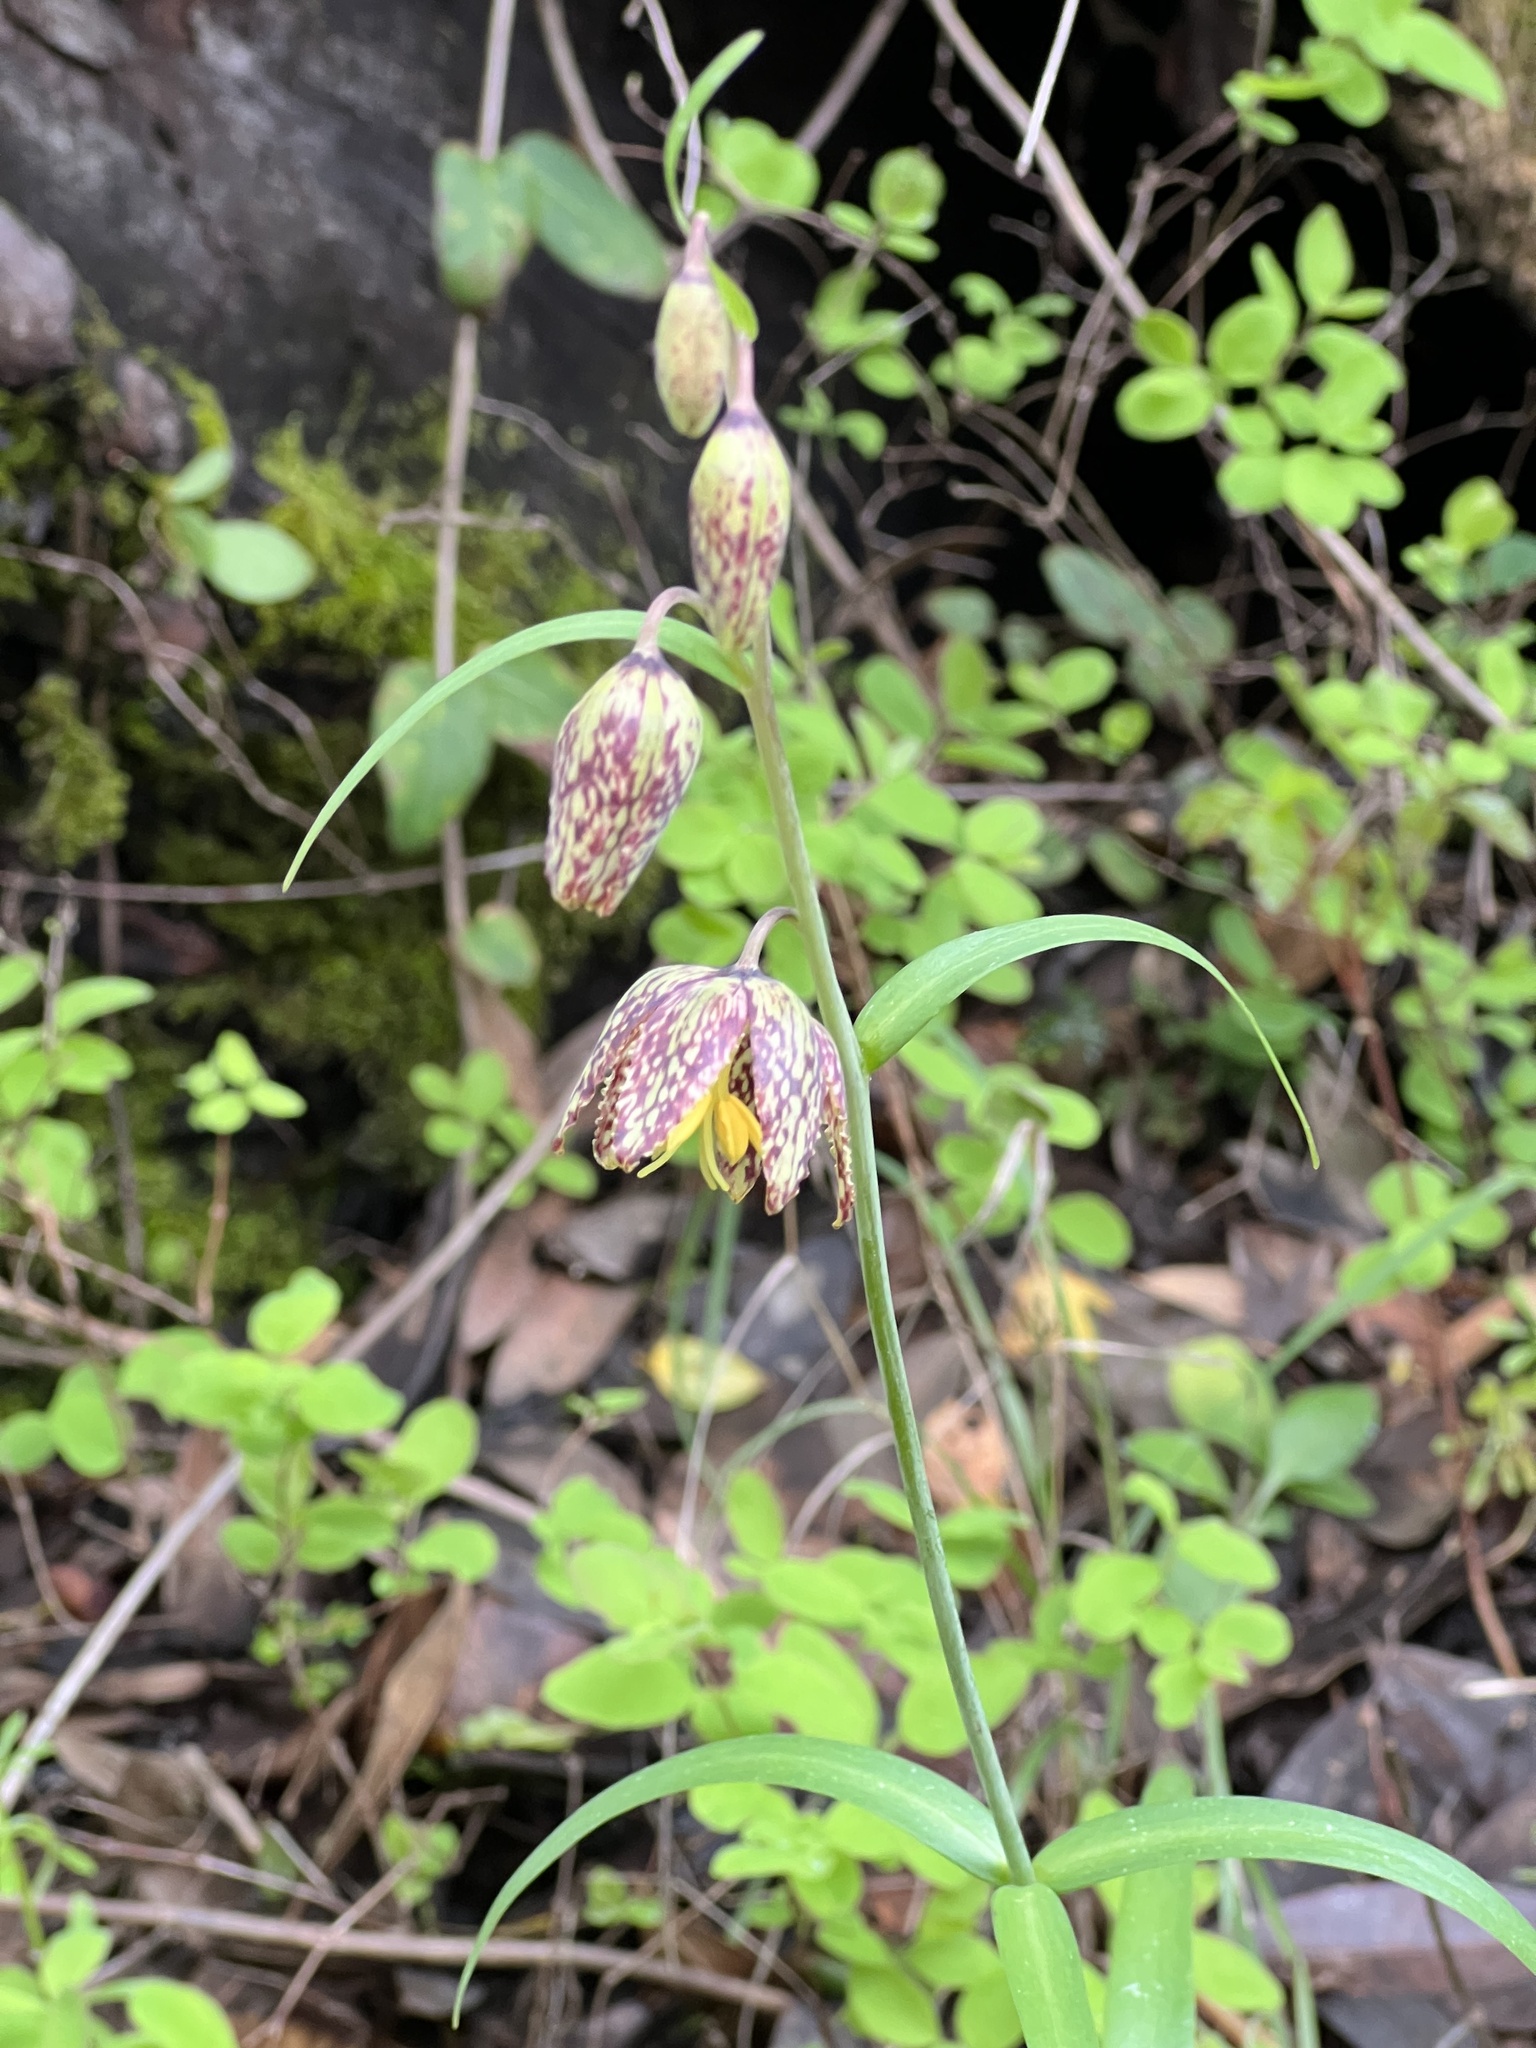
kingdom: Plantae
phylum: Tracheophyta
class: Liliopsida
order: Liliales
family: Liliaceae
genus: Fritillaria
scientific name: Fritillaria affinis
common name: Ojai fritillary
